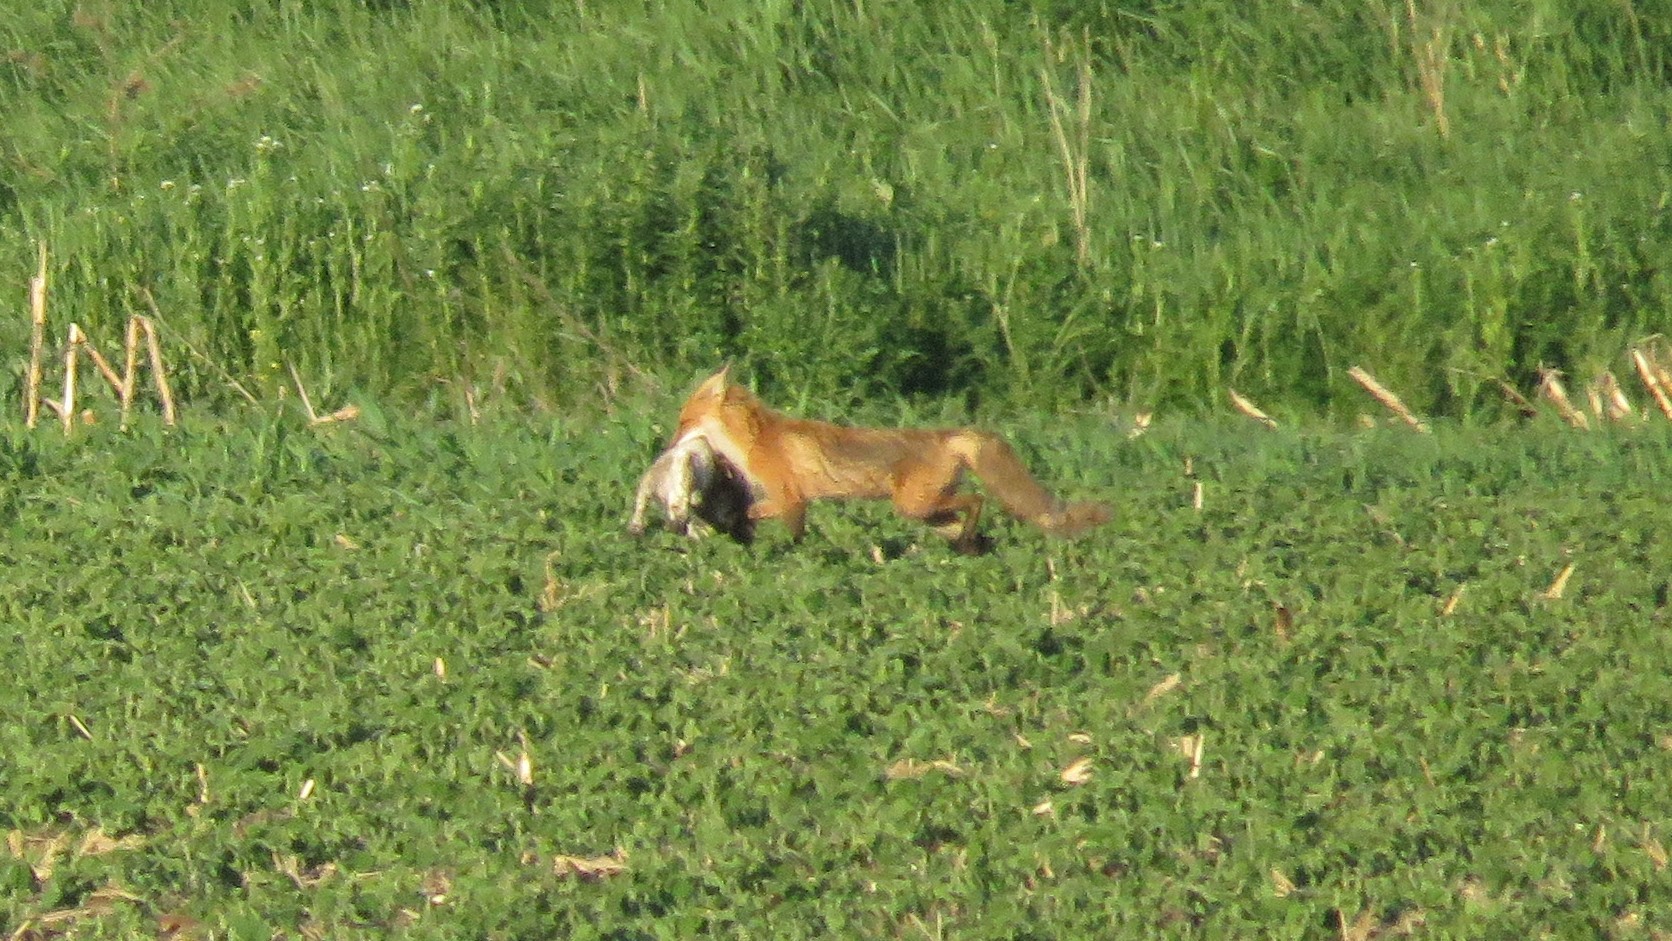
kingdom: Animalia
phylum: Chordata
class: Mammalia
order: Carnivora
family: Canidae
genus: Vulpes
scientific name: Vulpes vulpes
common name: Red fox
